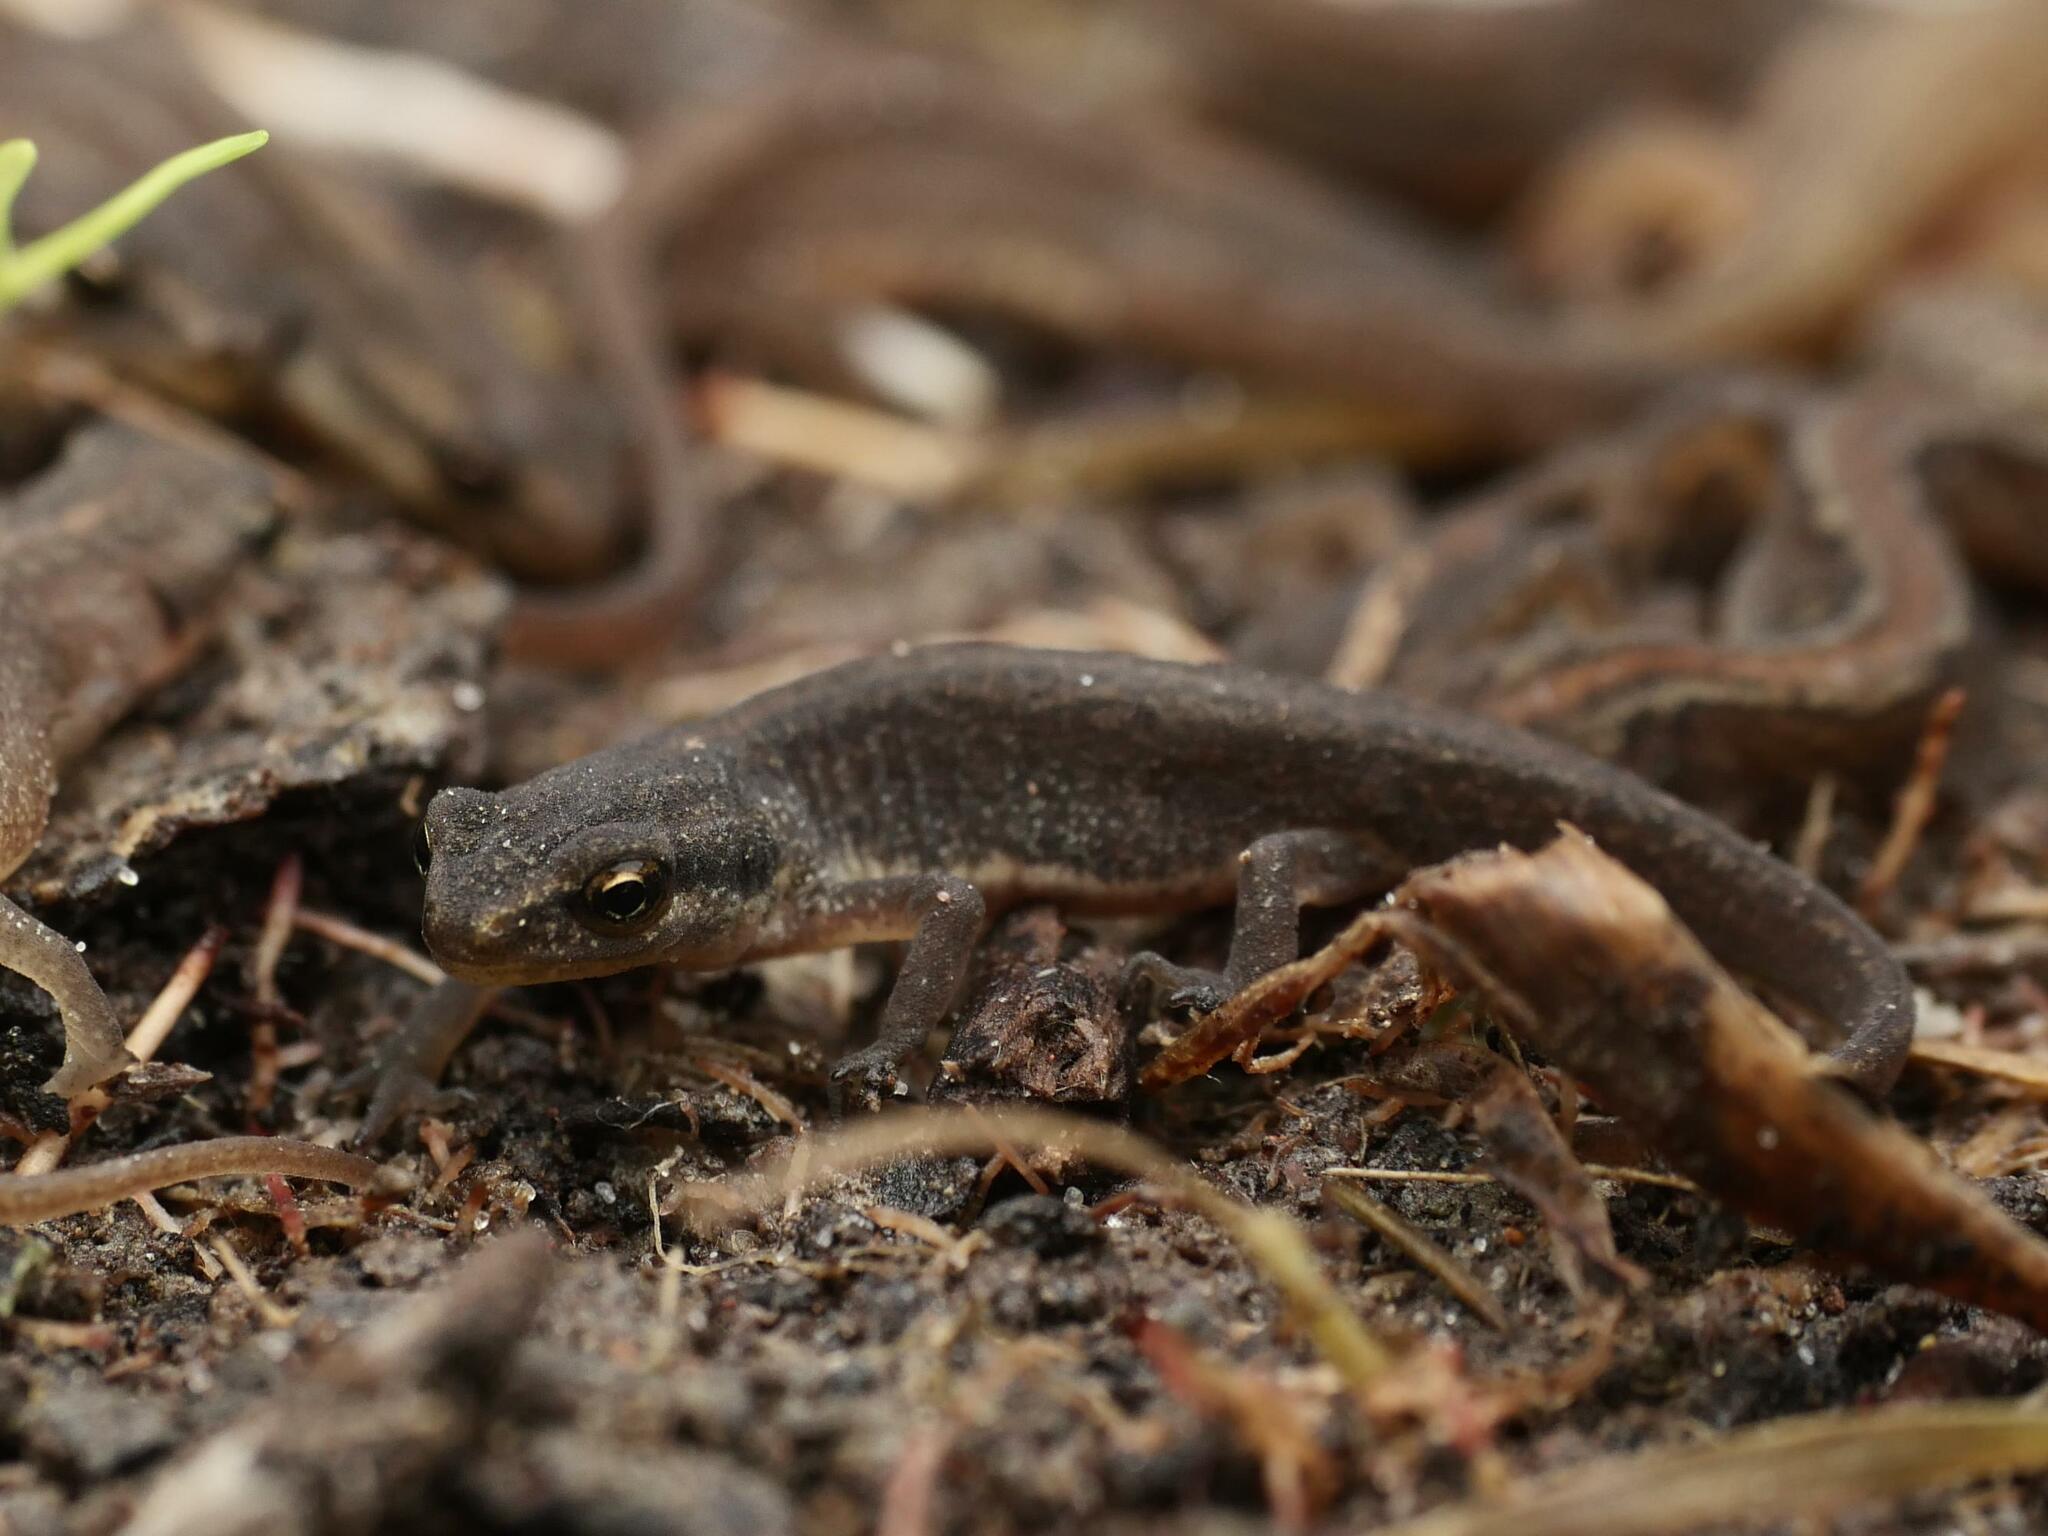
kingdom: Animalia
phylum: Chordata
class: Amphibia
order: Caudata
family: Salamandridae
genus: Lissotriton
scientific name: Lissotriton vulgaris
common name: Smooth newt
